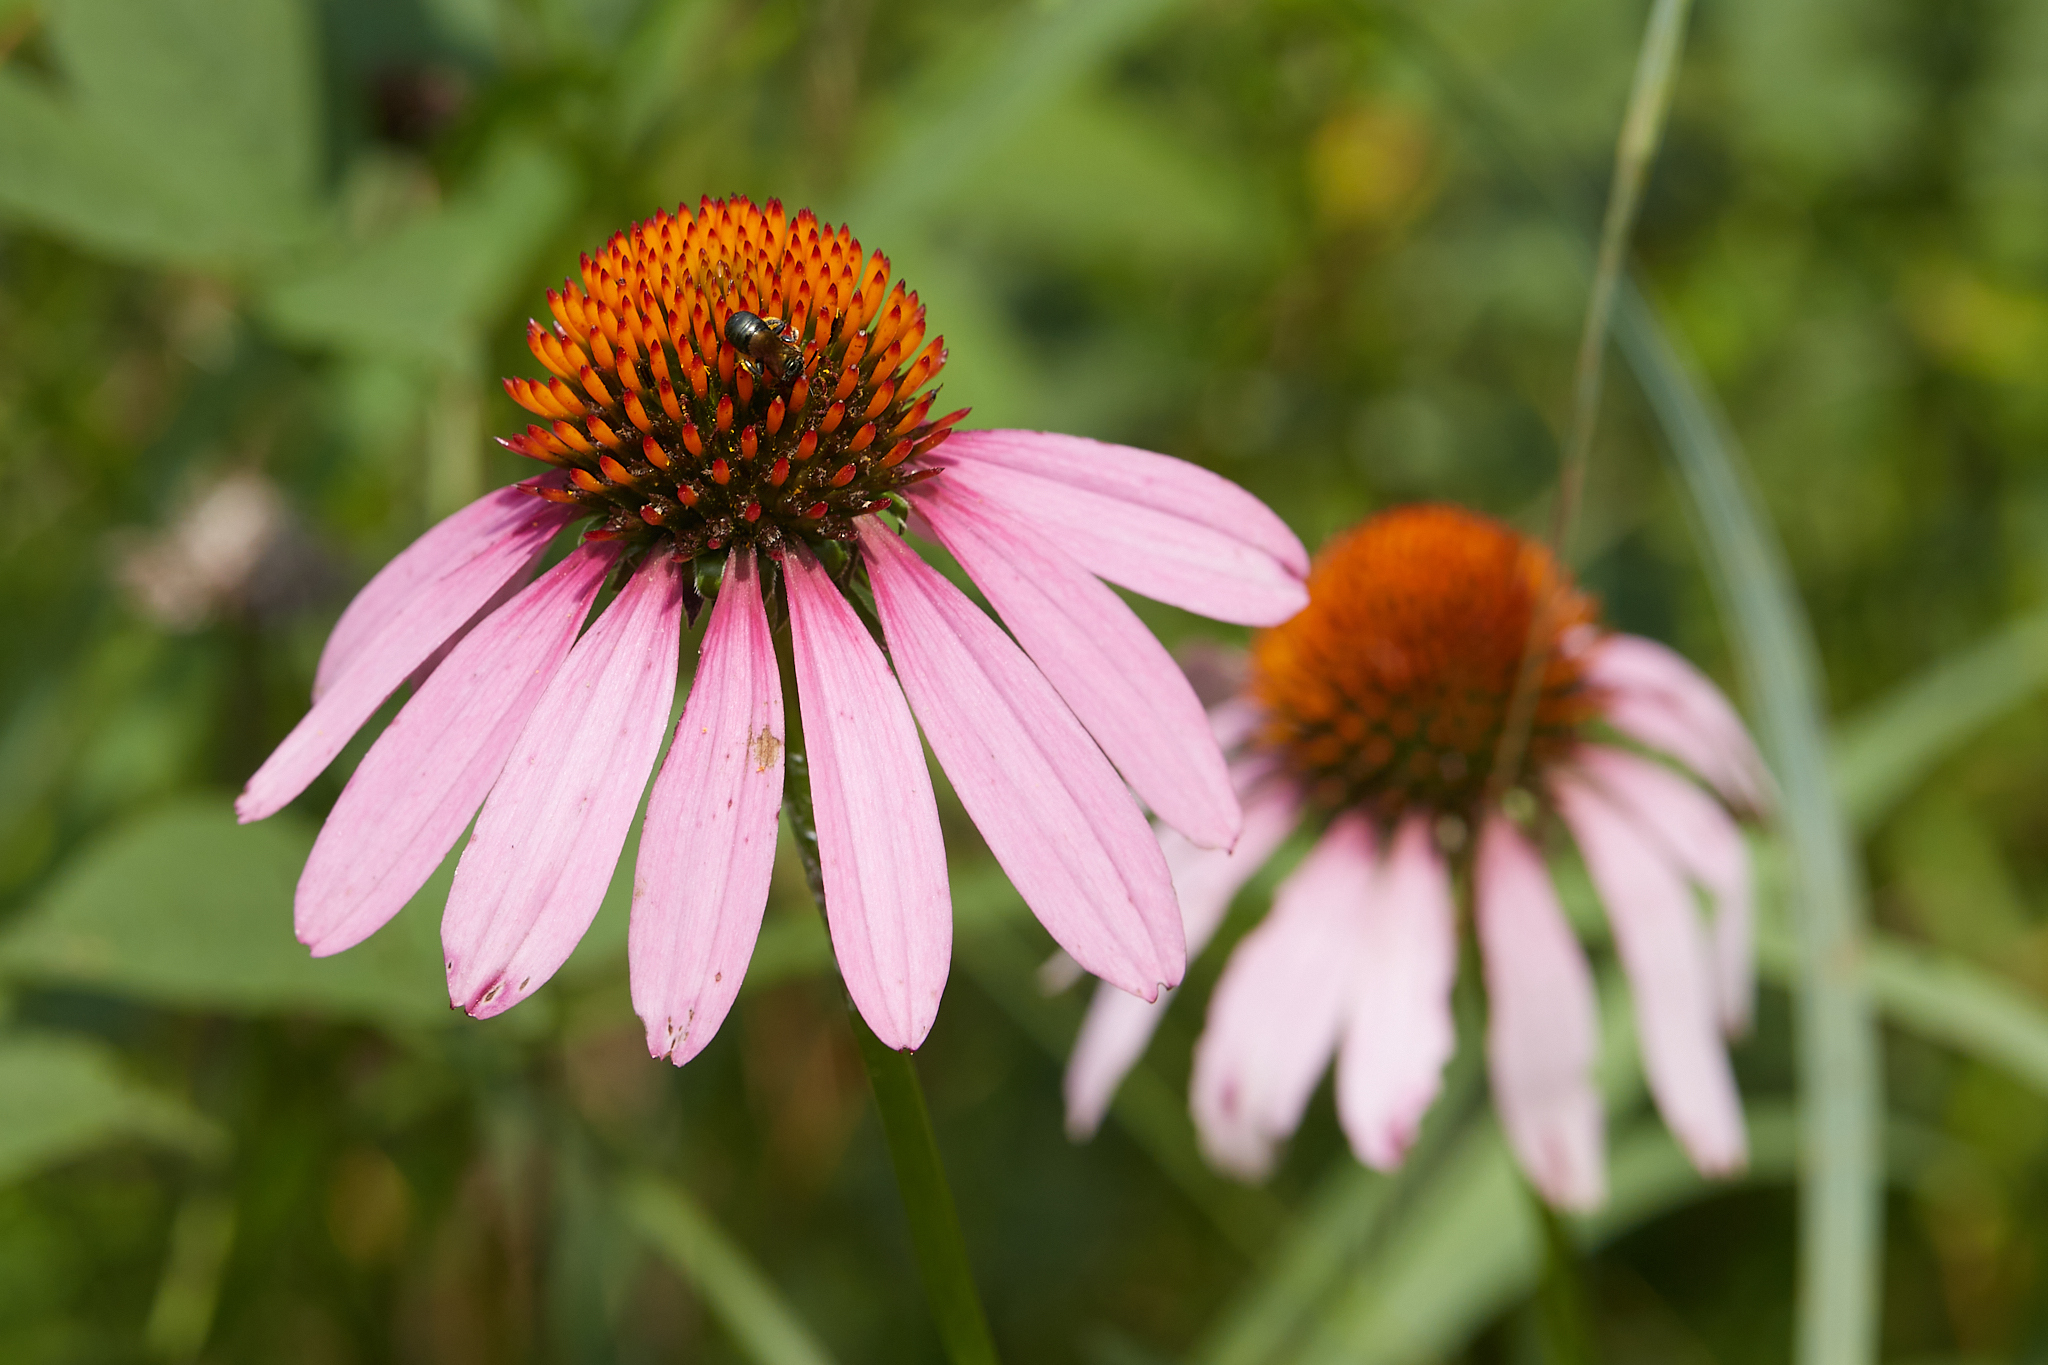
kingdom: Plantae
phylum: Tracheophyta
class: Magnoliopsida
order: Asterales
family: Asteraceae
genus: Echinacea
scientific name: Echinacea purpurea
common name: Broad-leaved purple coneflower
